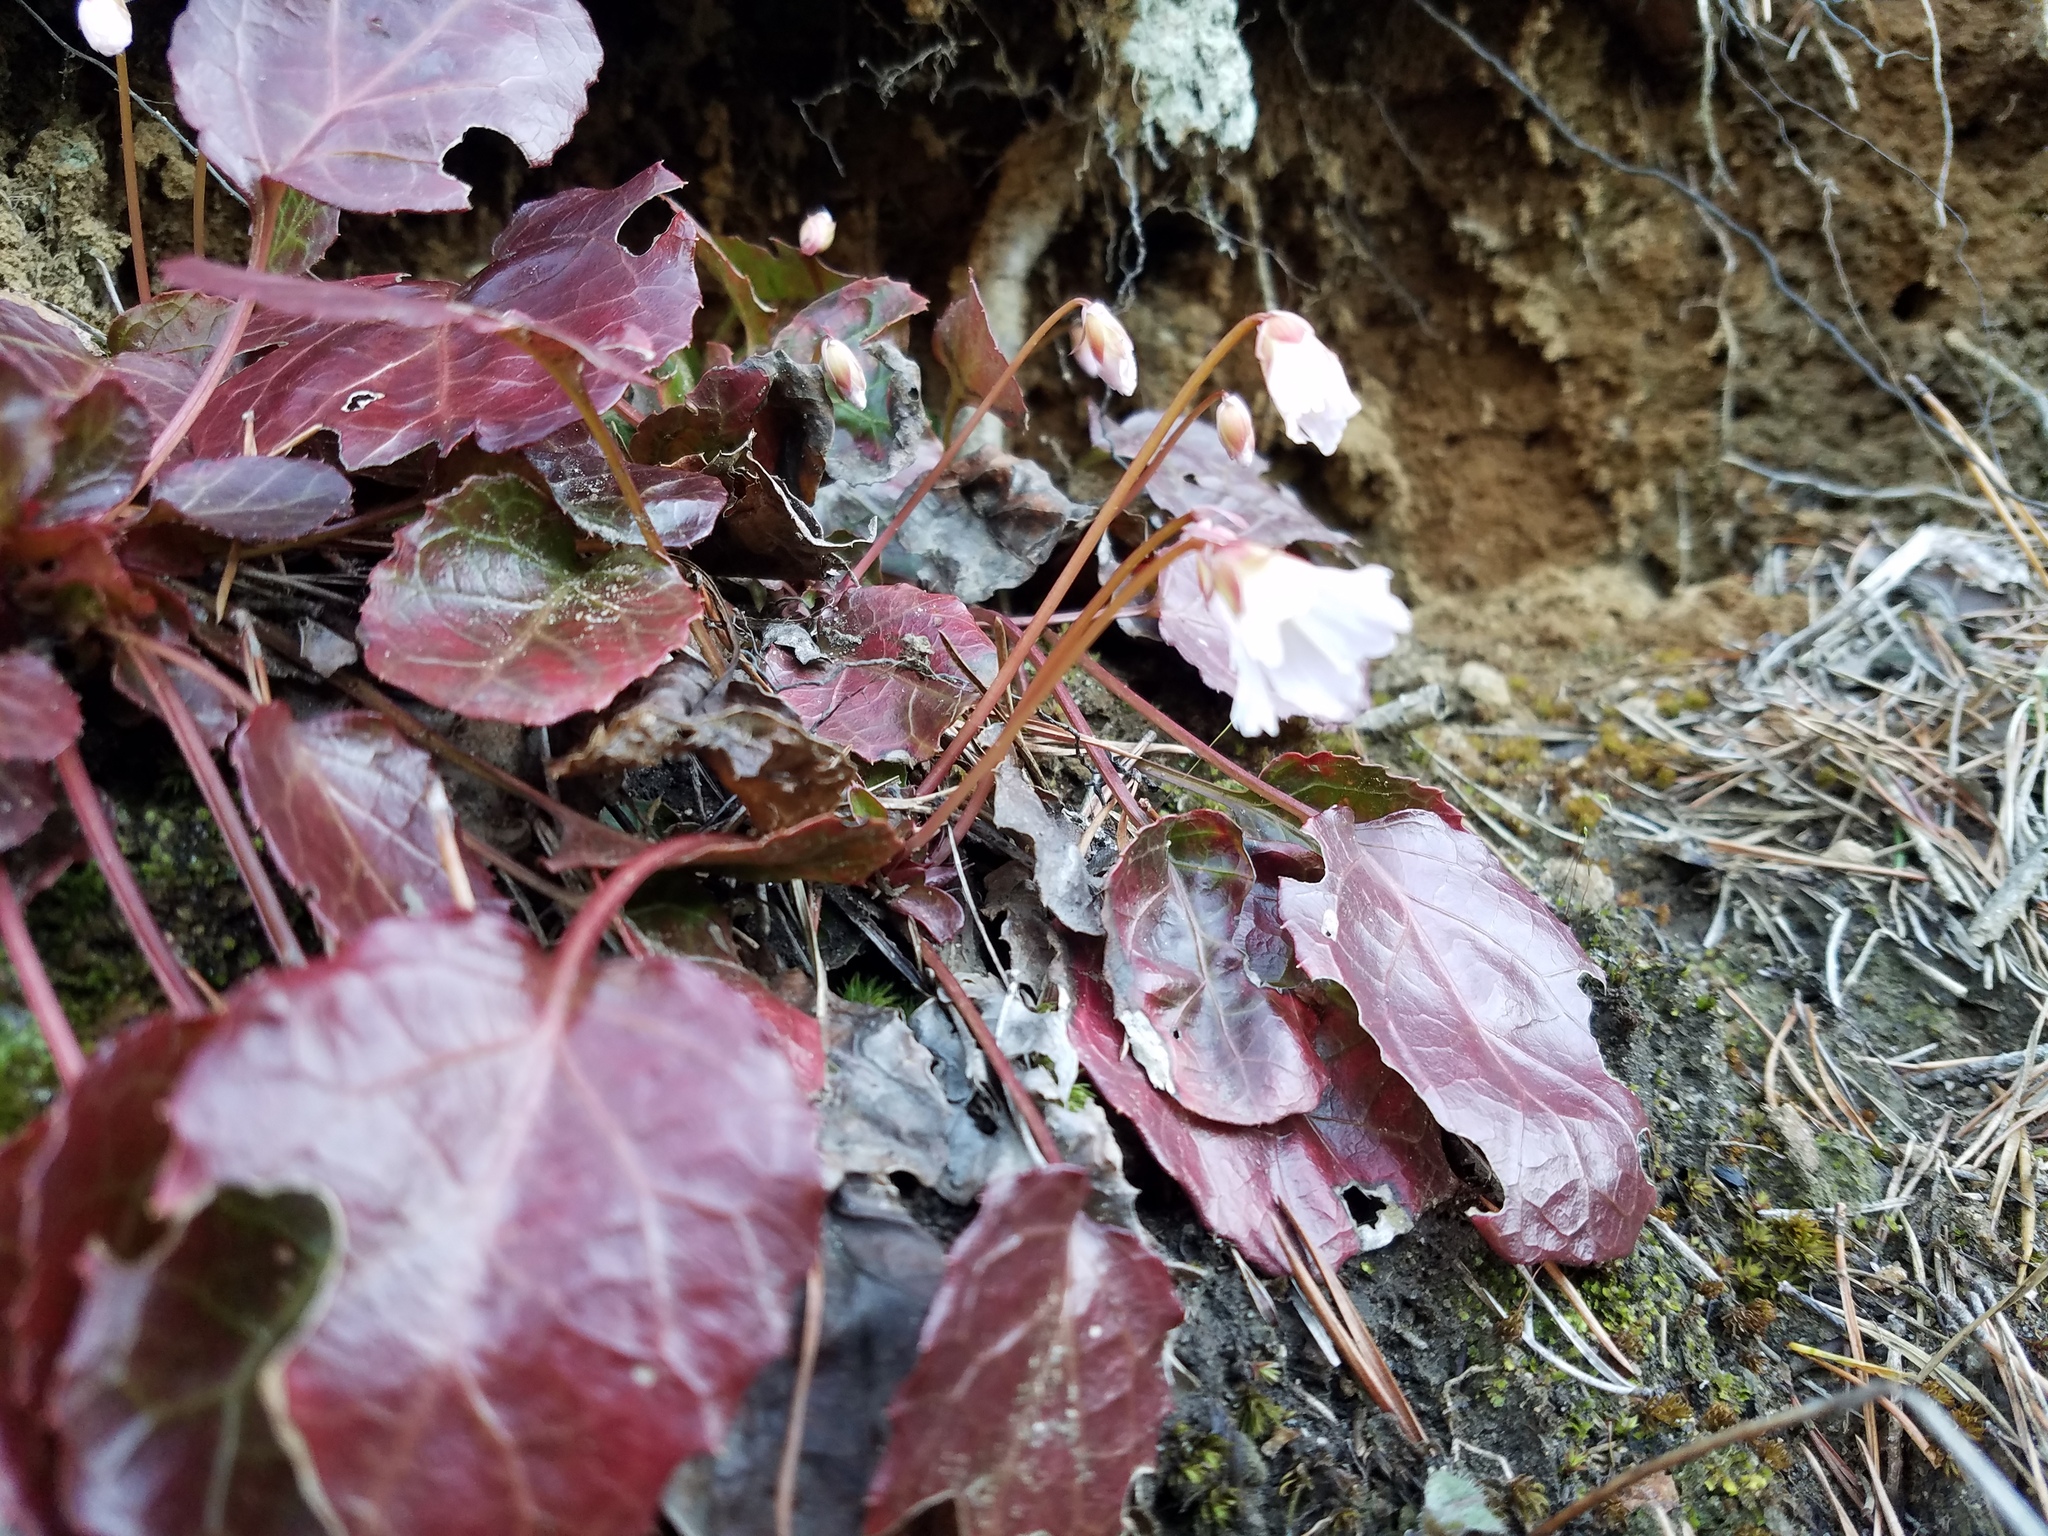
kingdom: Plantae
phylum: Tracheophyta
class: Magnoliopsida
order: Ericales
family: Diapensiaceae
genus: Shortia
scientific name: Shortia galacifolia
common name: Shortia
